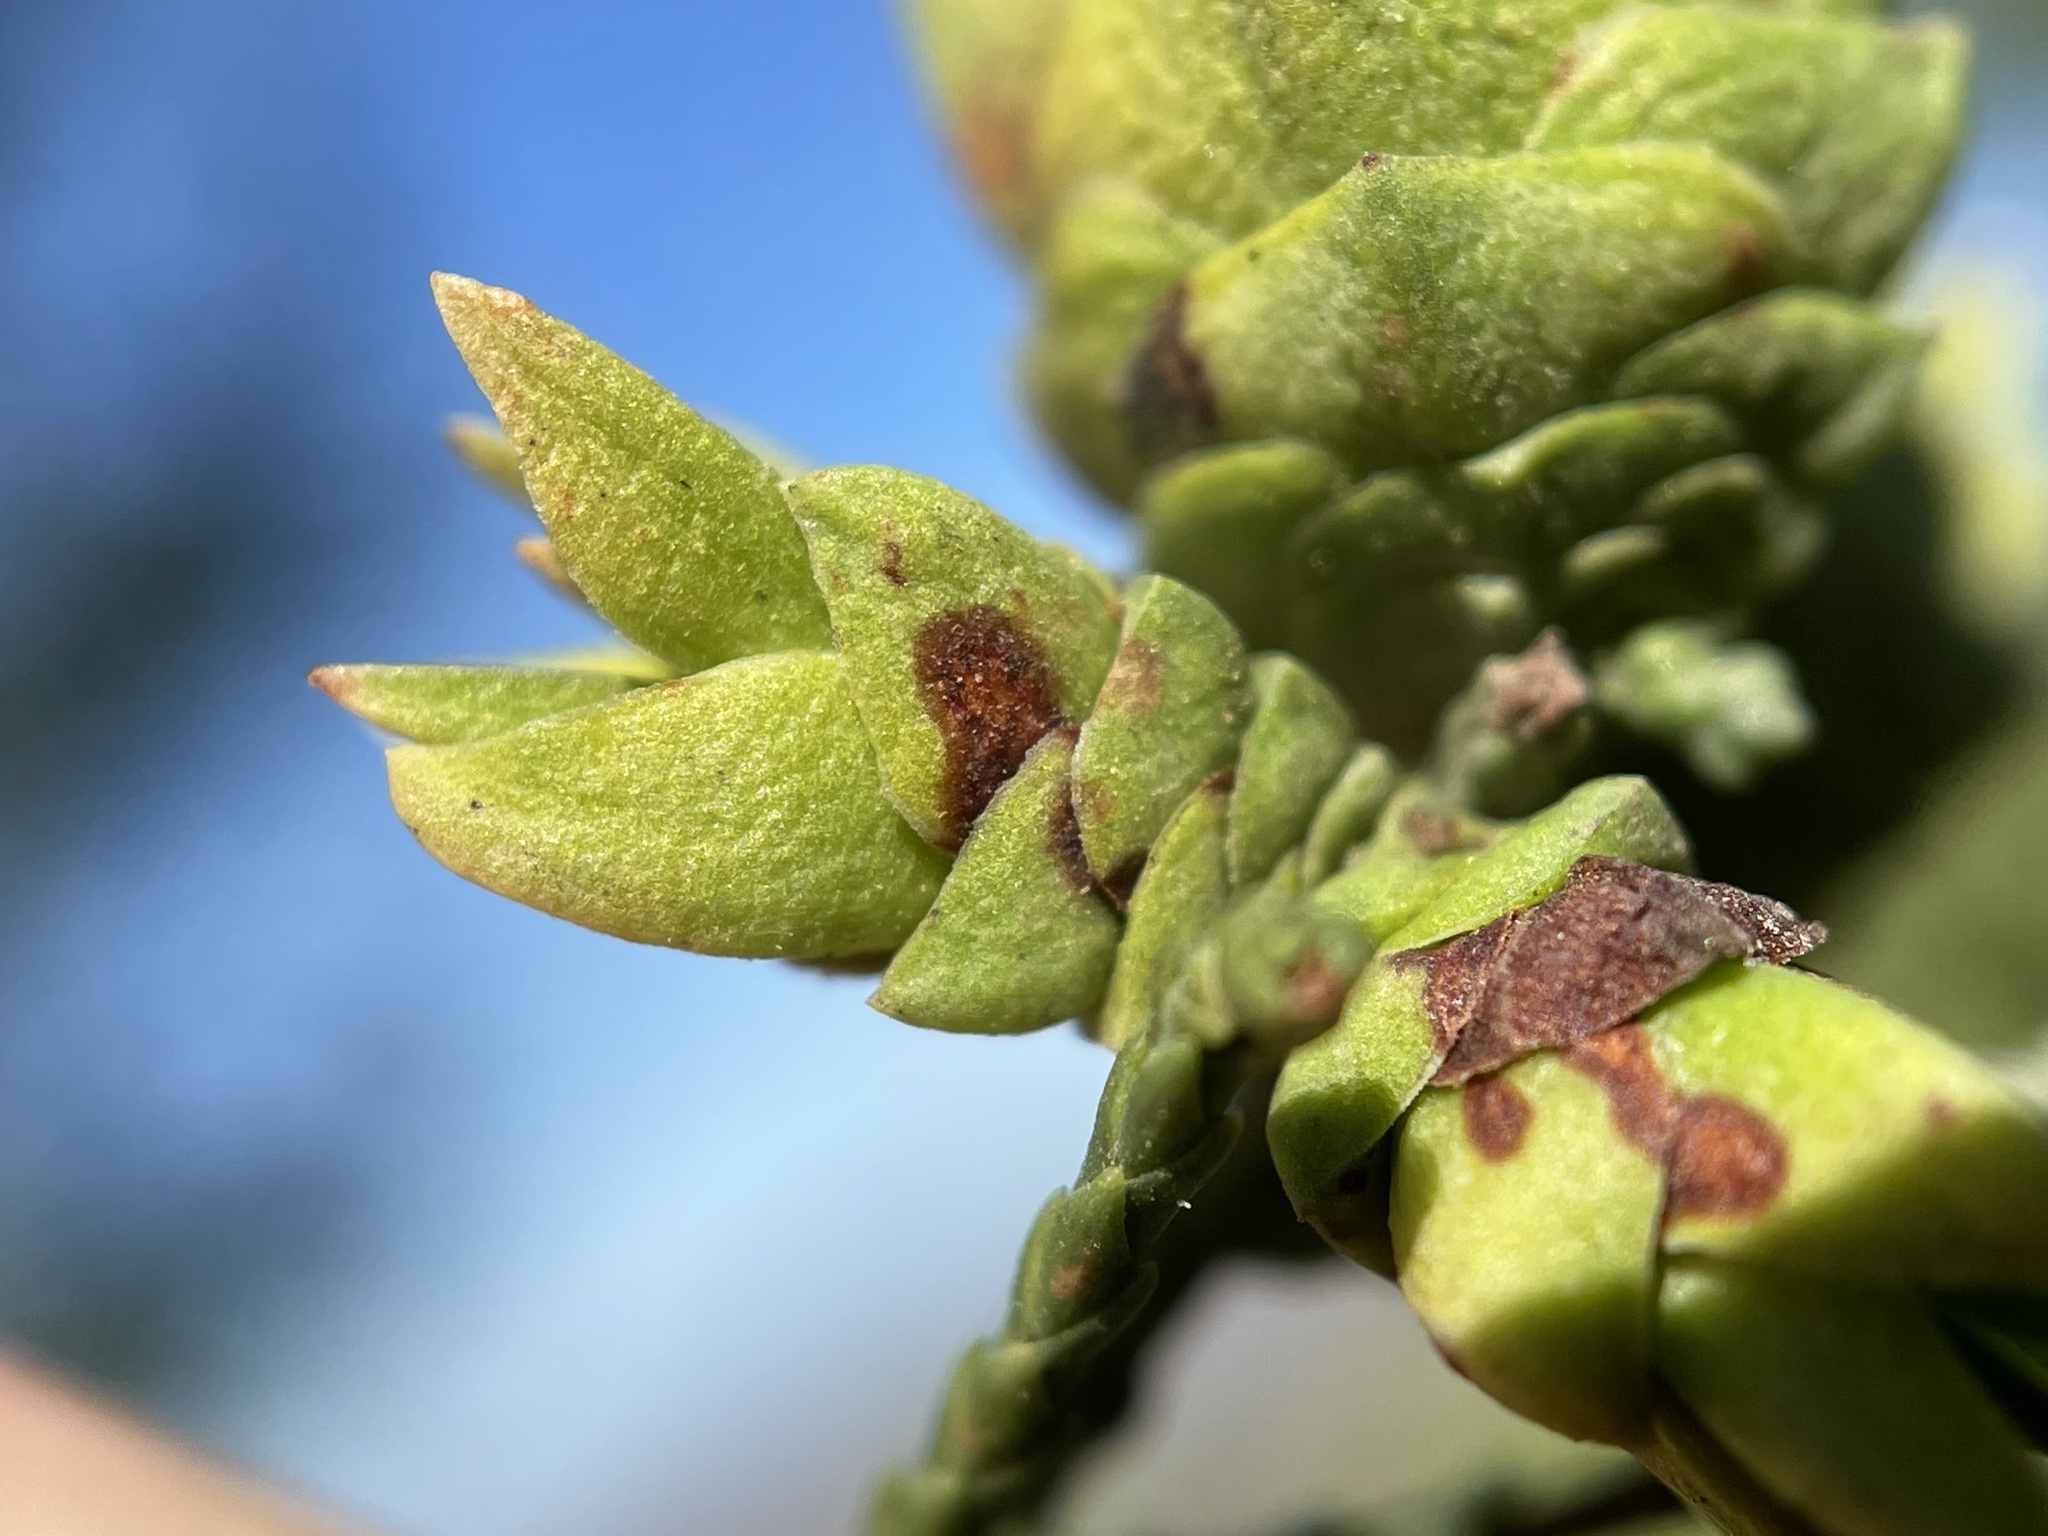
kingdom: Animalia
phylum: Arthropoda
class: Insecta
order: Diptera
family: Cecidomyiidae
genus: Oligotrophus
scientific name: Oligotrophus cupressi
